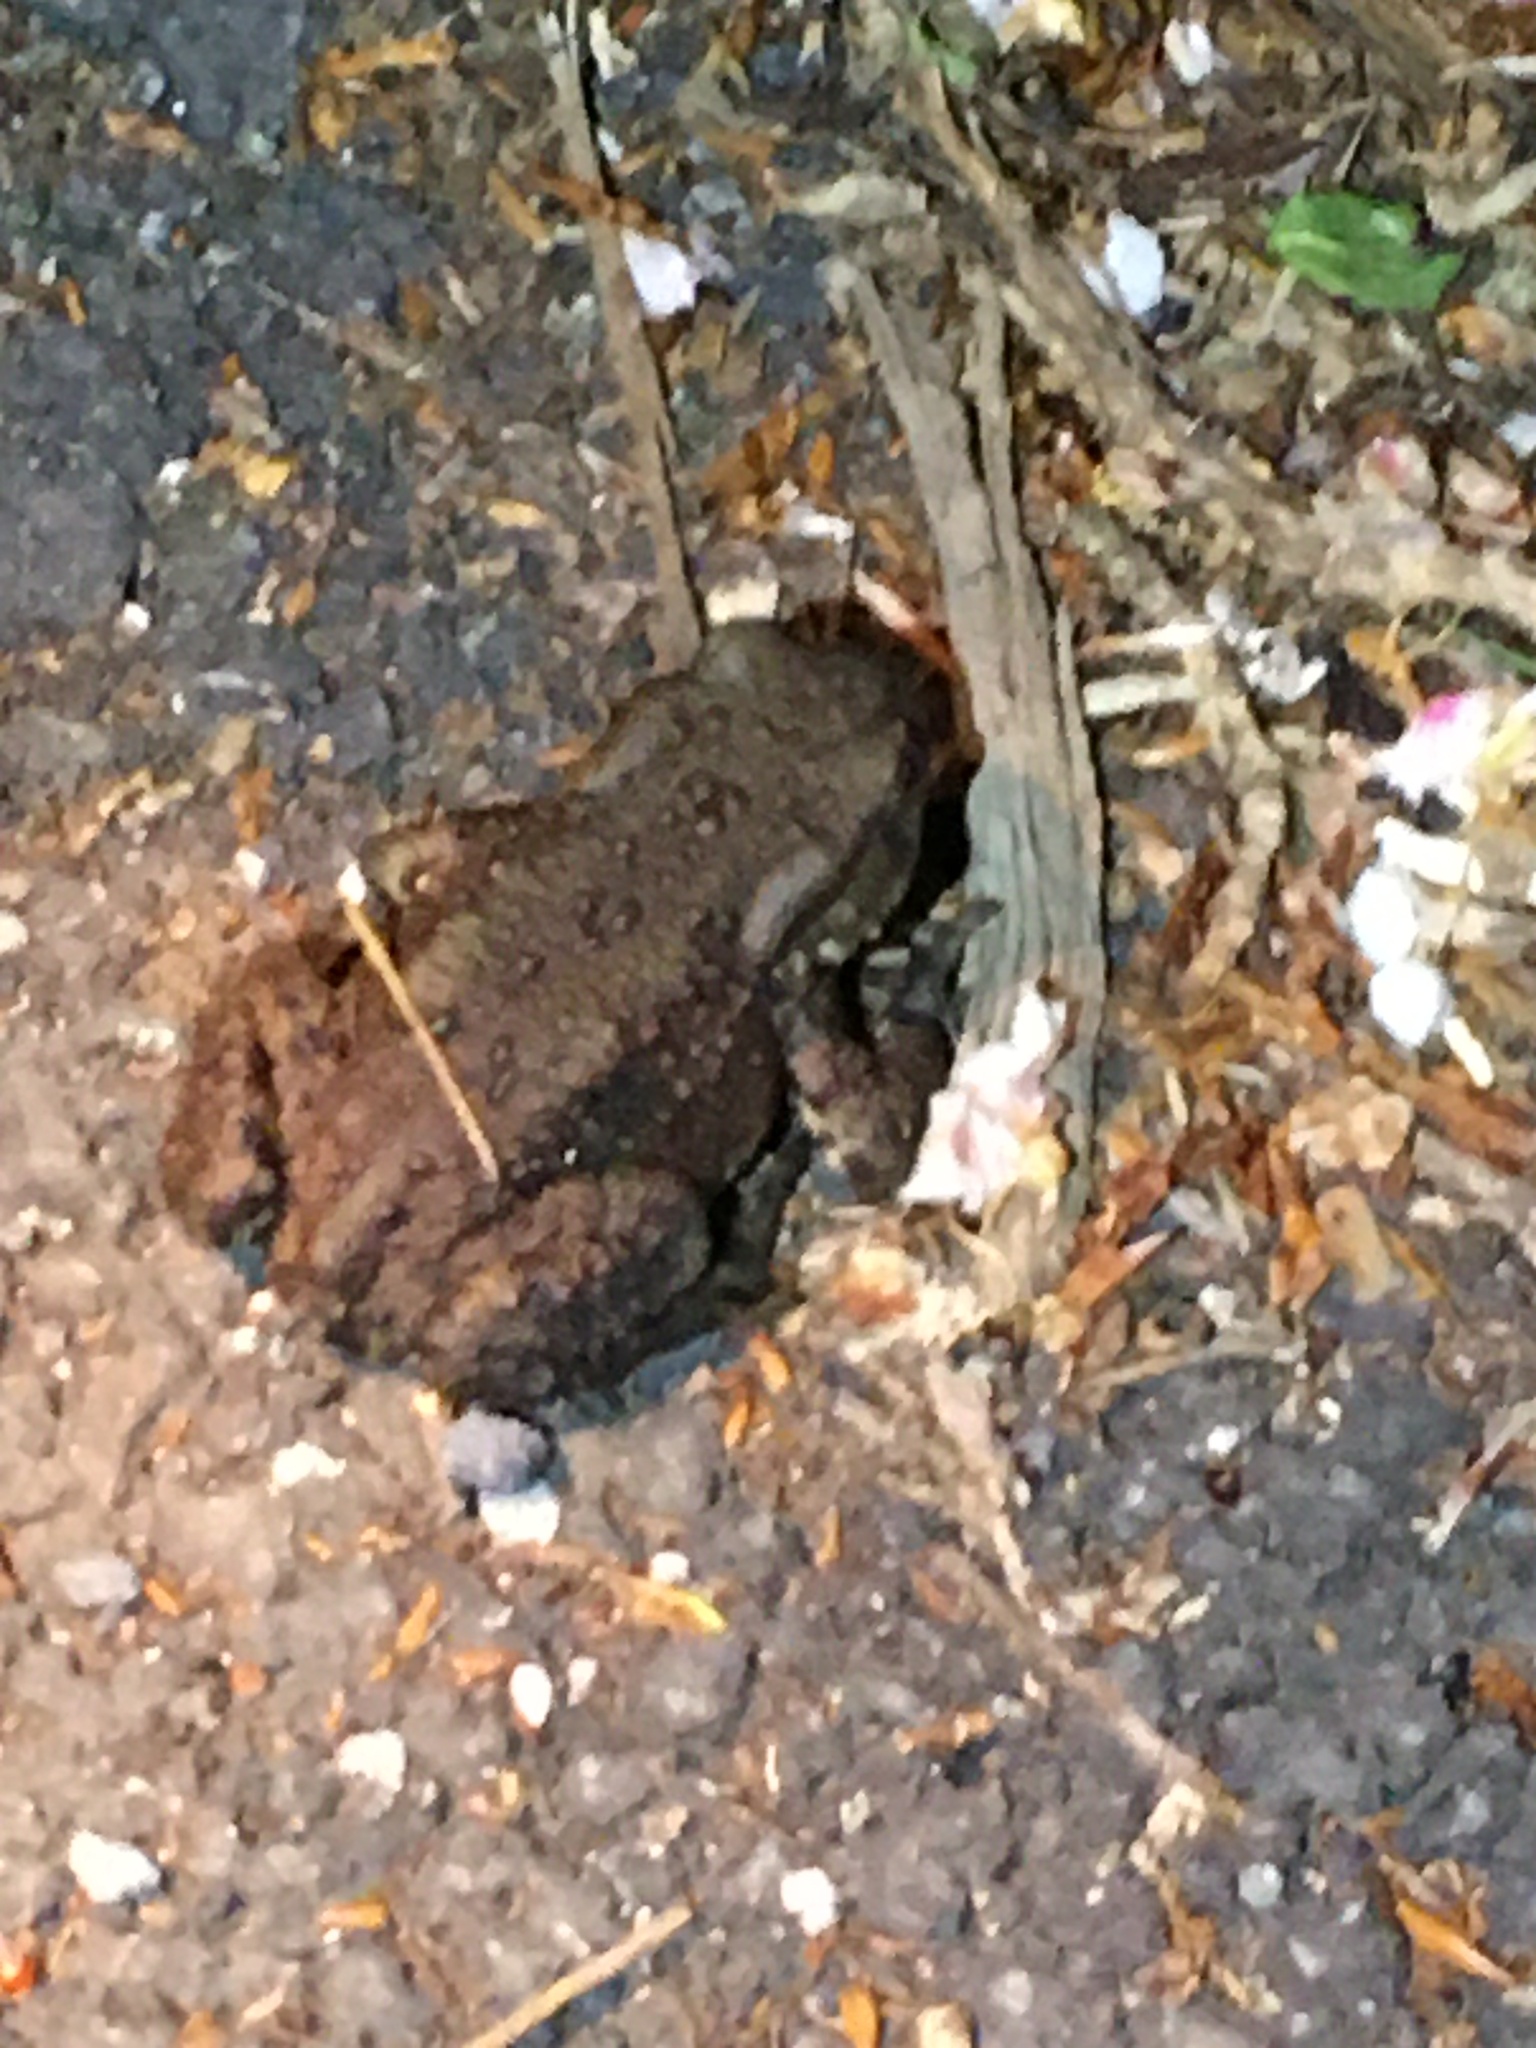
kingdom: Animalia
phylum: Chordata
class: Amphibia
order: Anura
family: Bufonidae
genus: Bufo
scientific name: Bufo bufo
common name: Common toad
